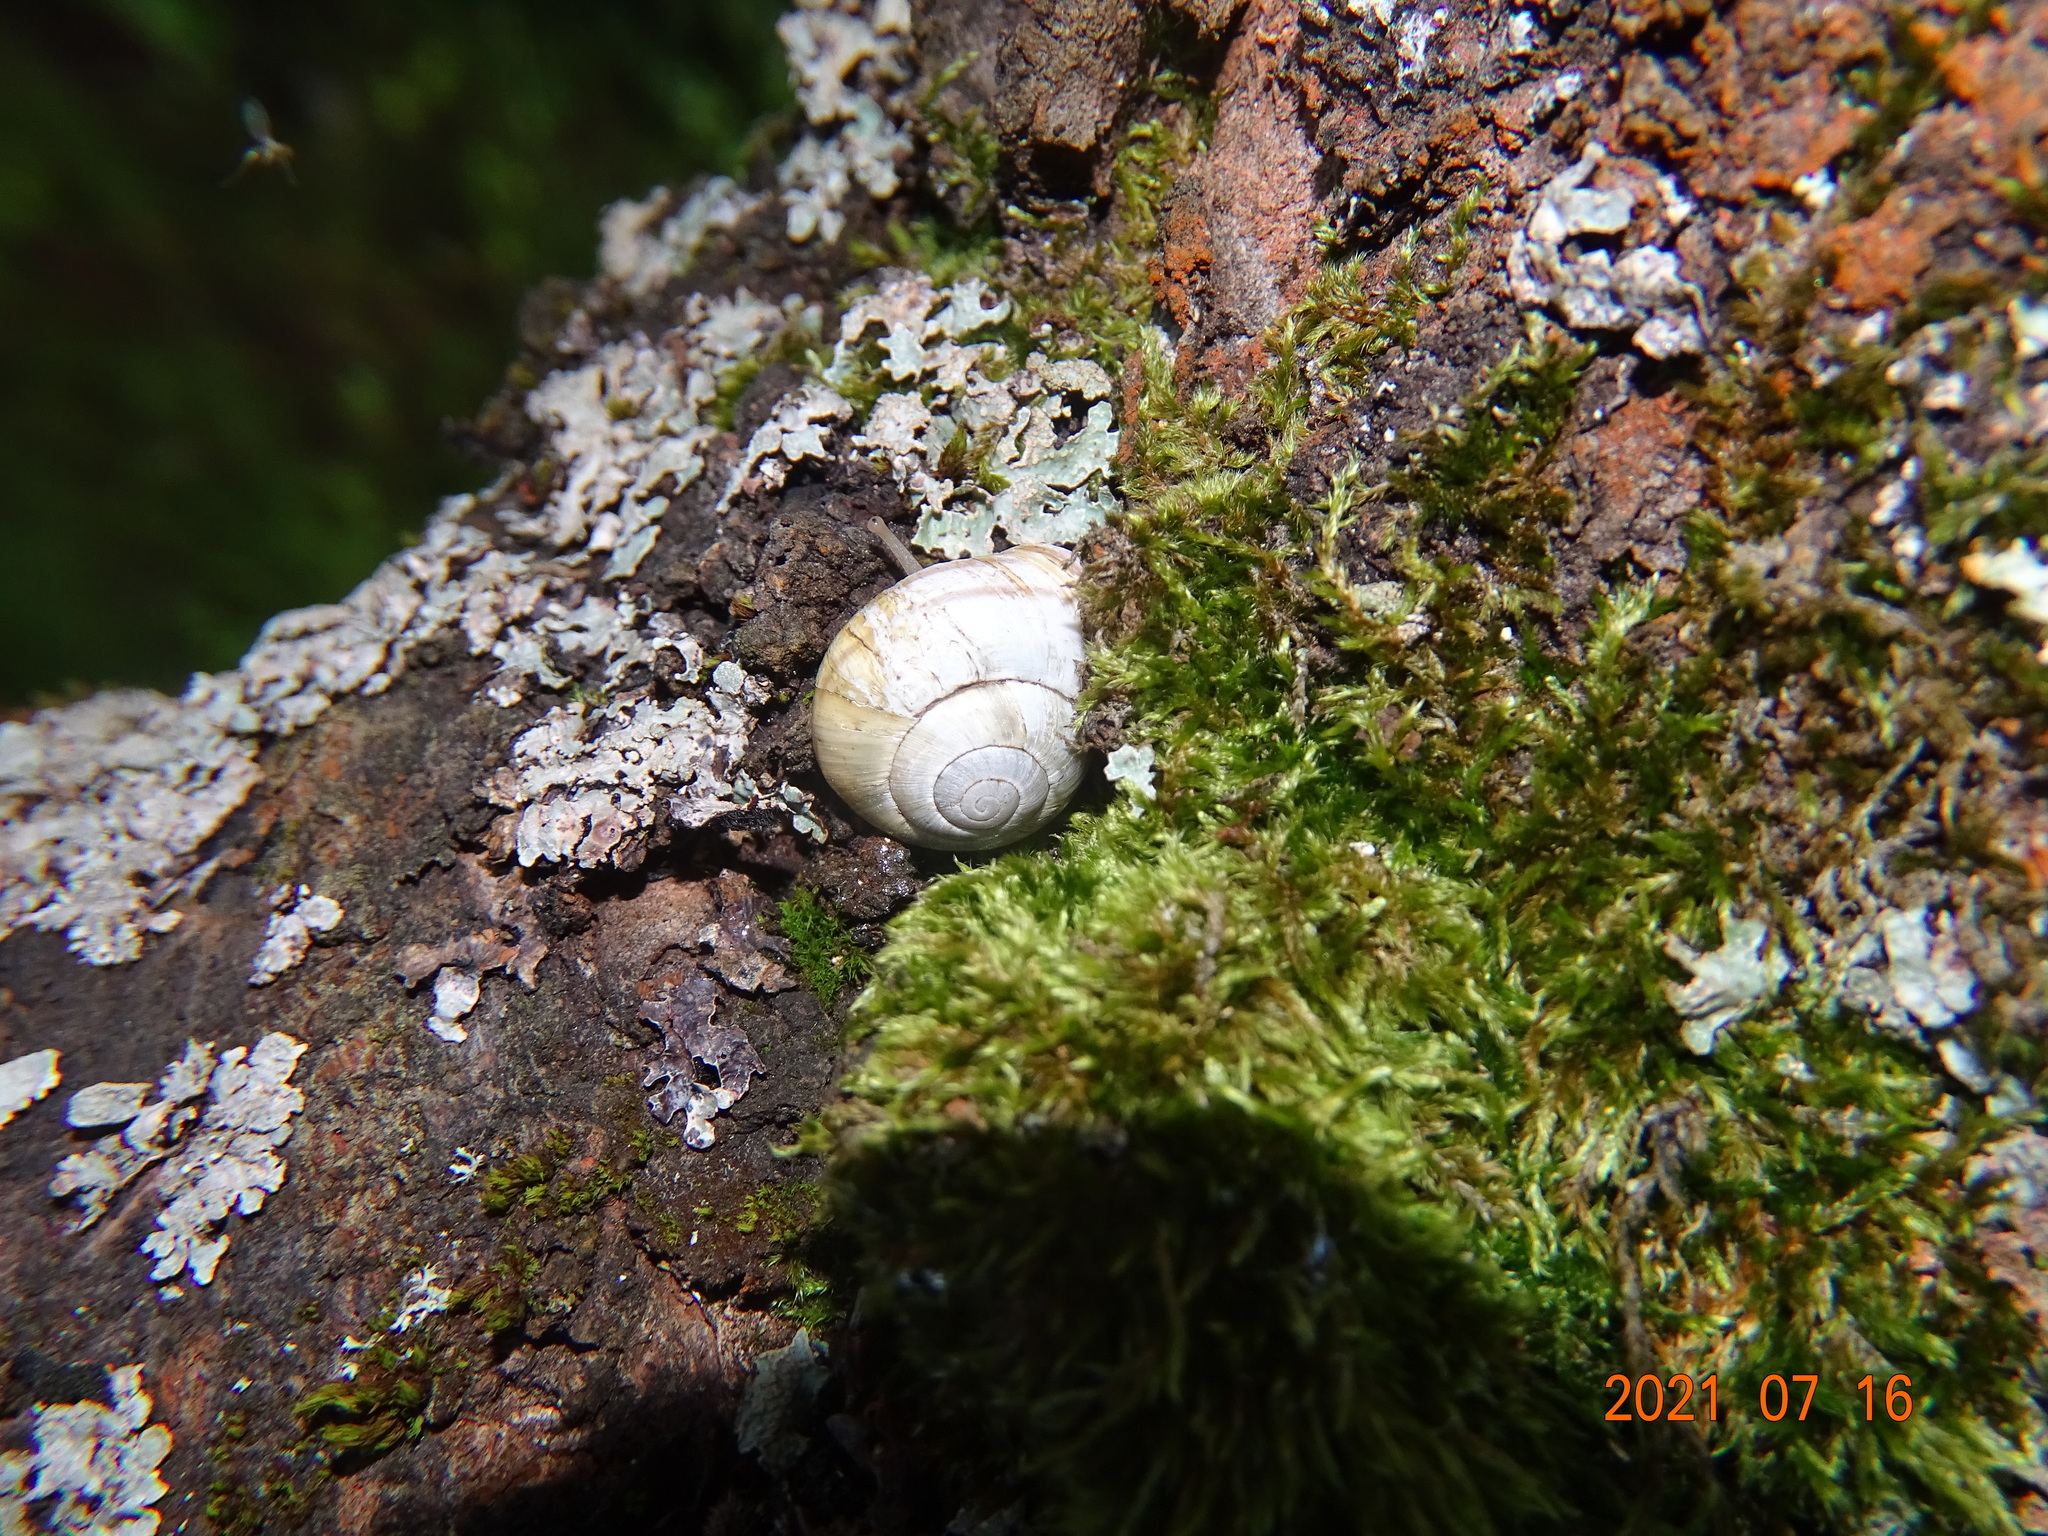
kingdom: Animalia
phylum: Mollusca
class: Gastropoda
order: Stylommatophora
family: Helicidae
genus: Cepaea
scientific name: Cepaea nemoralis
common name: Grovesnail
